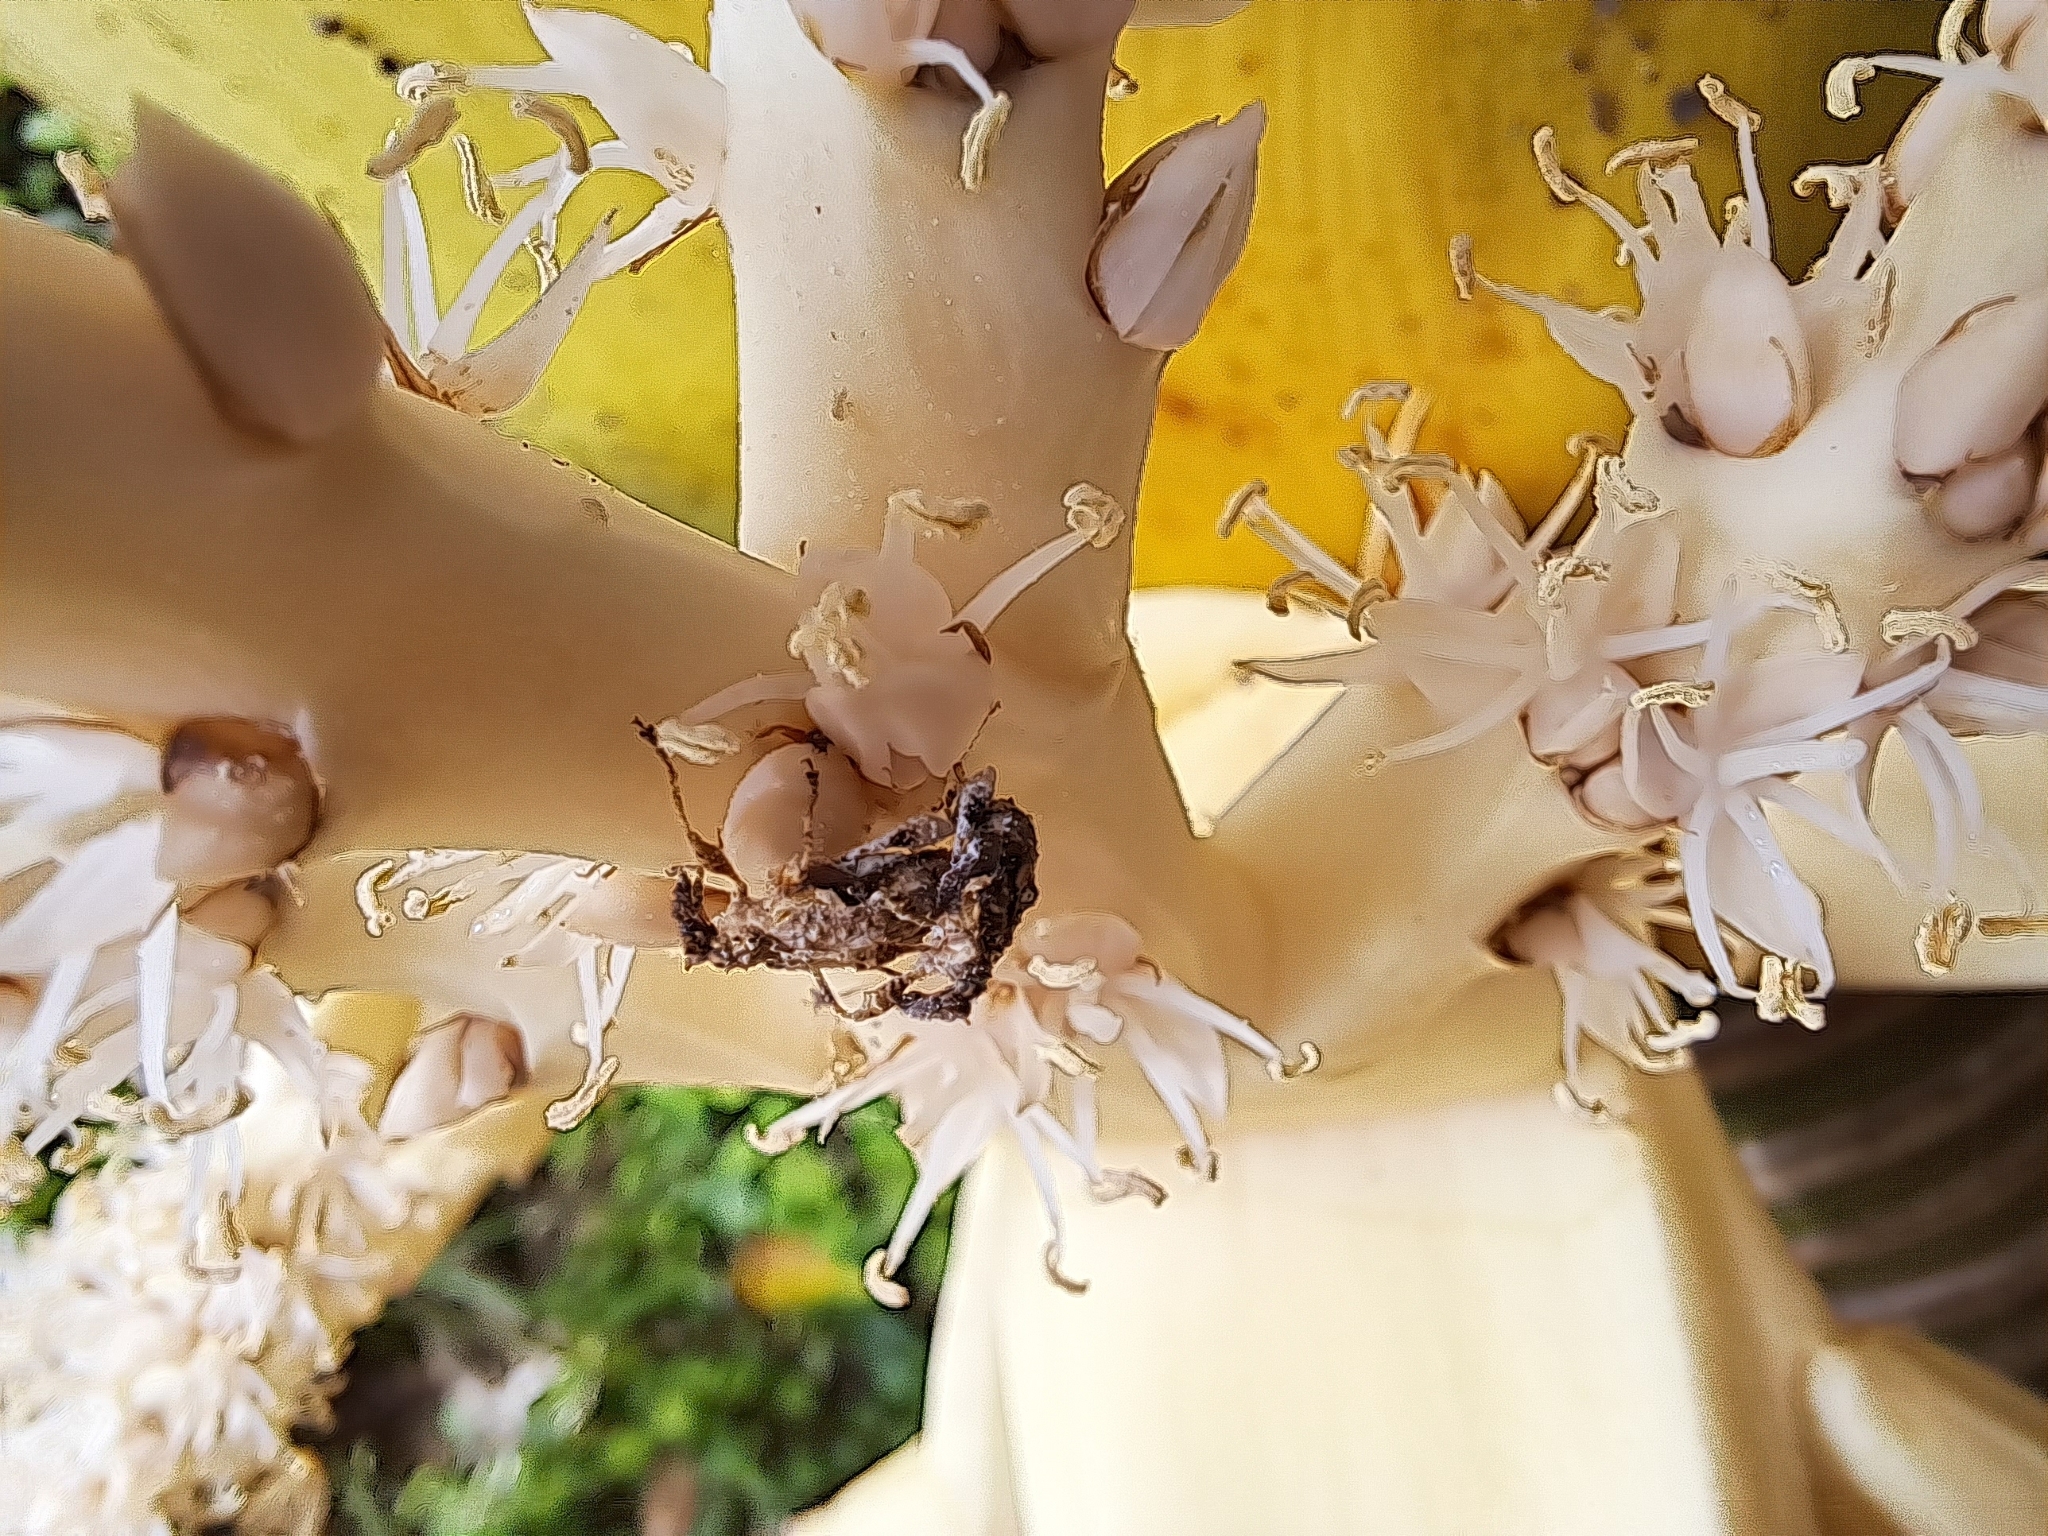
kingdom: Animalia
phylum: Arthropoda
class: Insecta
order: Coleoptera
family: Curculionidae
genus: Stephanorhynchus
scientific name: Stephanorhynchus curvipes
